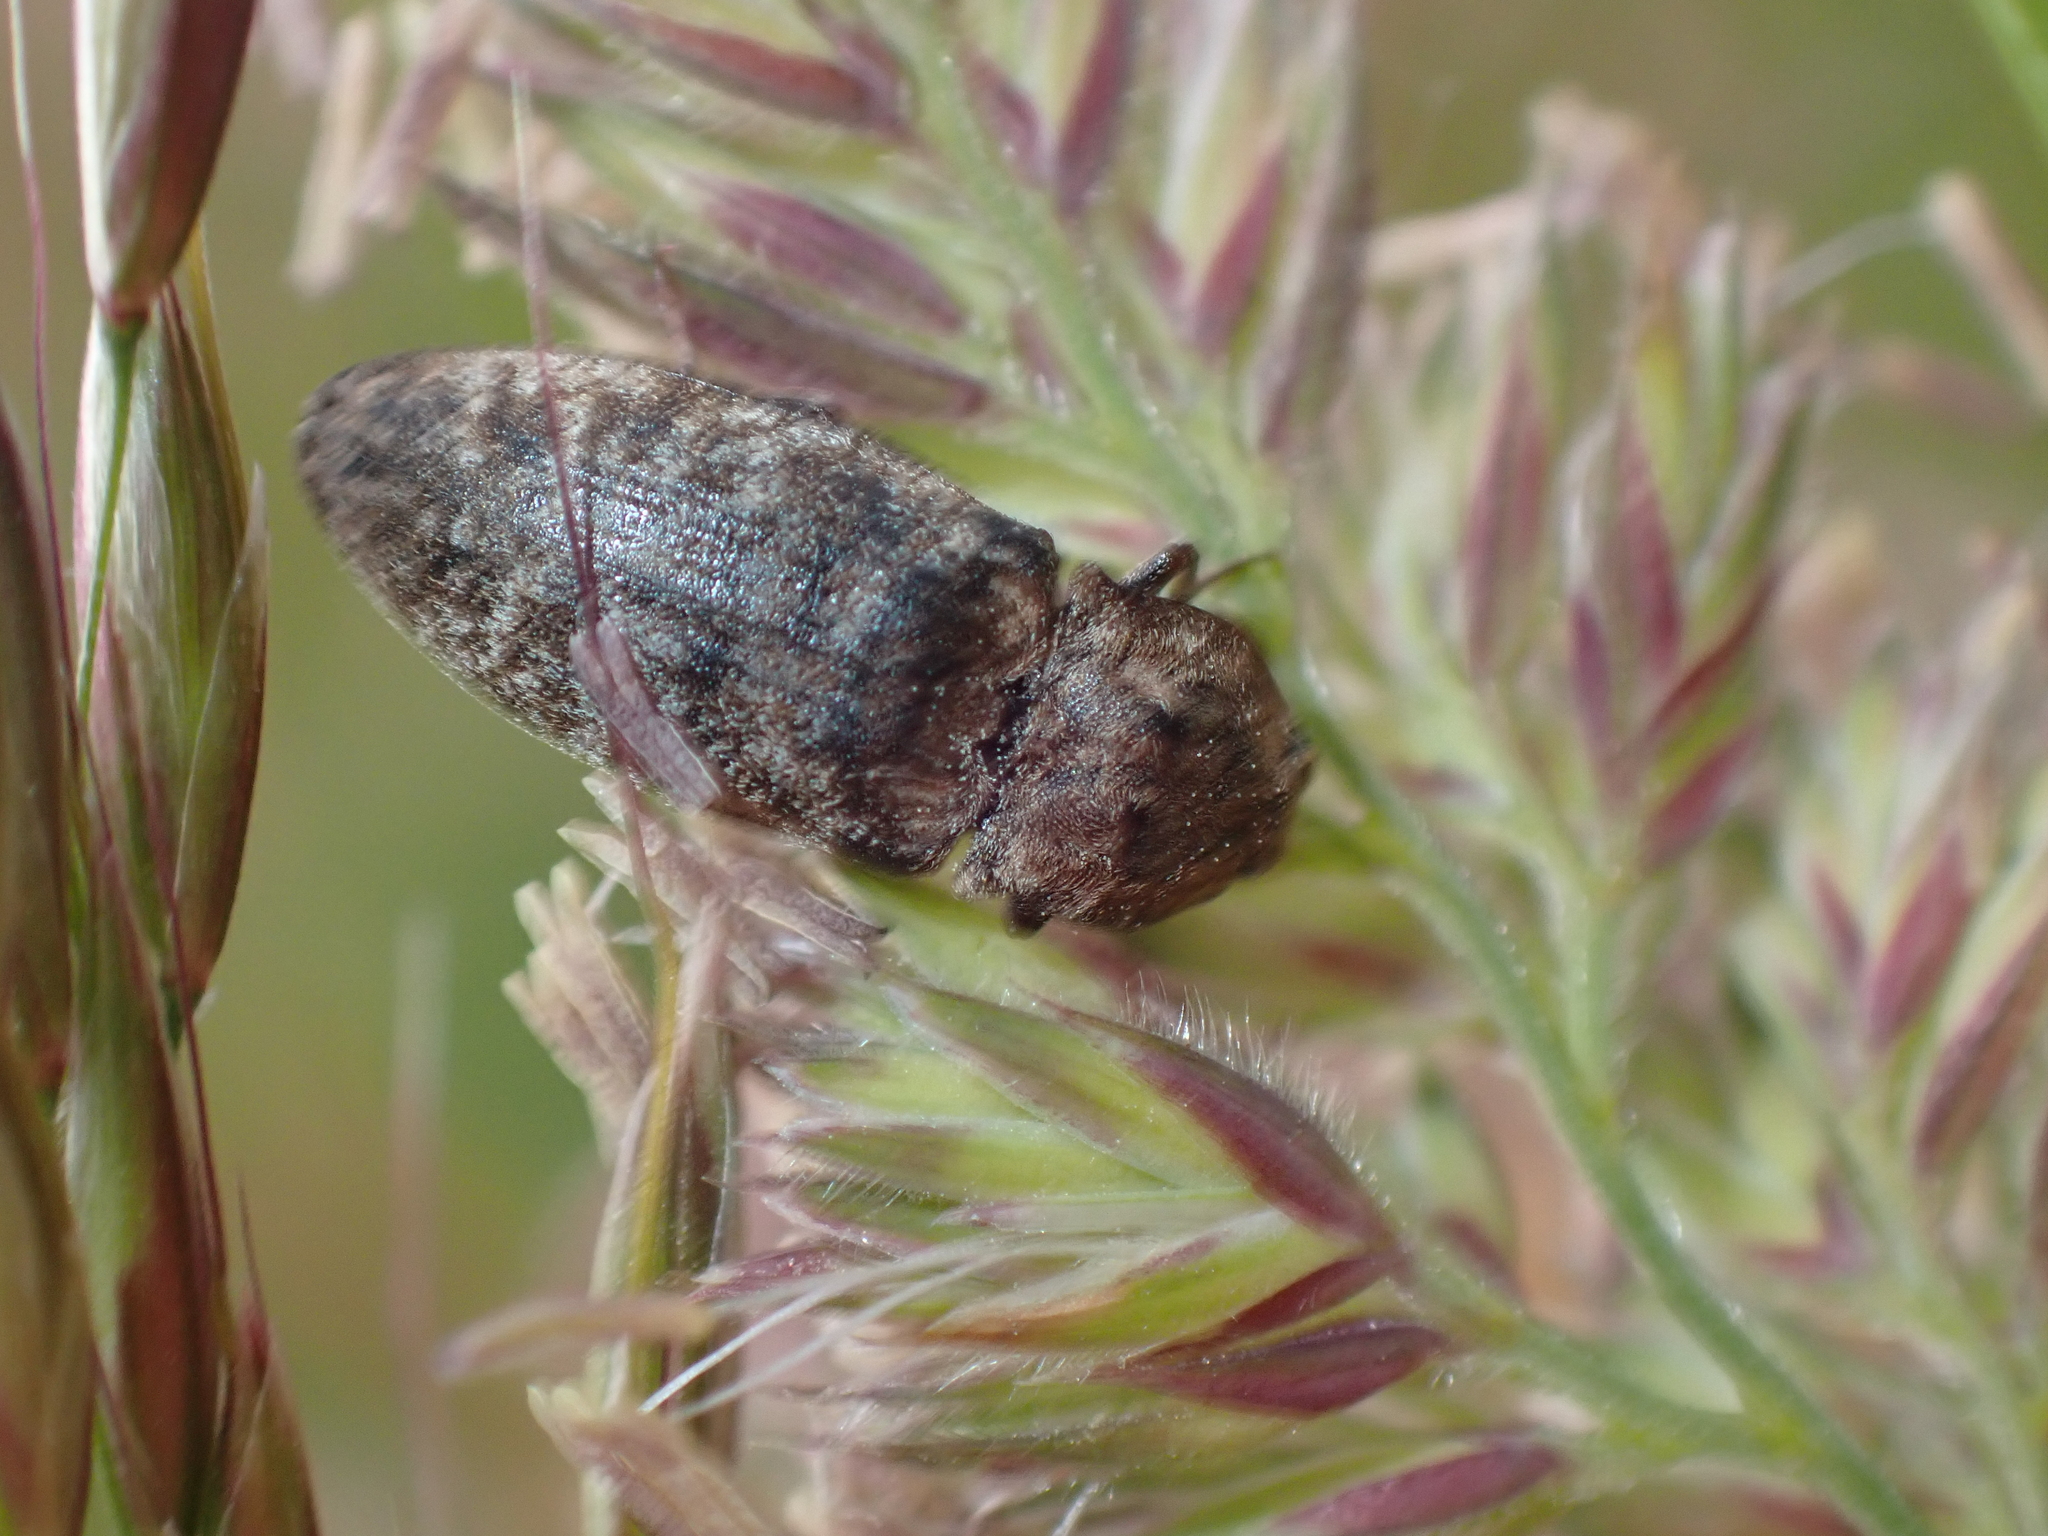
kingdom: Animalia
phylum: Arthropoda
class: Insecta
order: Coleoptera
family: Elateridae
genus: Agrypnus
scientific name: Agrypnus murinus
